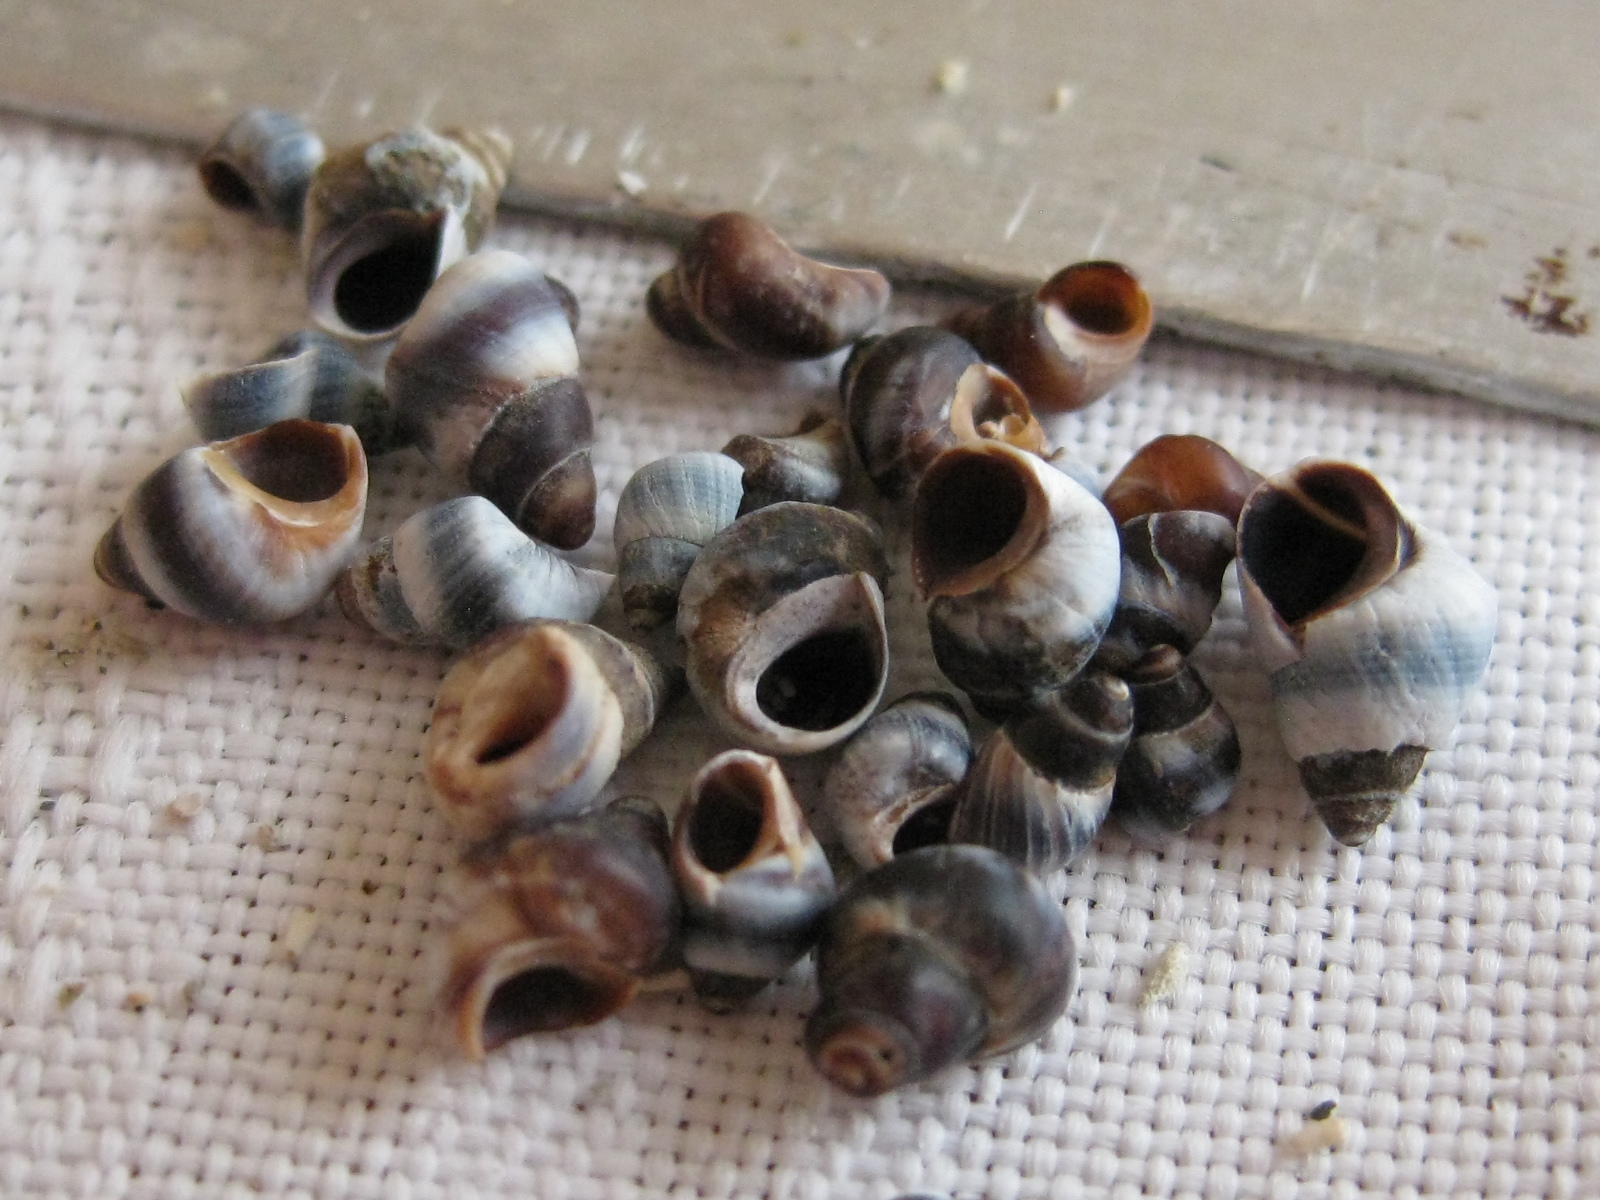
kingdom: Animalia
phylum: Mollusca
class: Gastropoda
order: Littorinimorpha
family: Littorinidae
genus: Austrolittorina
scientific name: Austrolittorina antipodum
